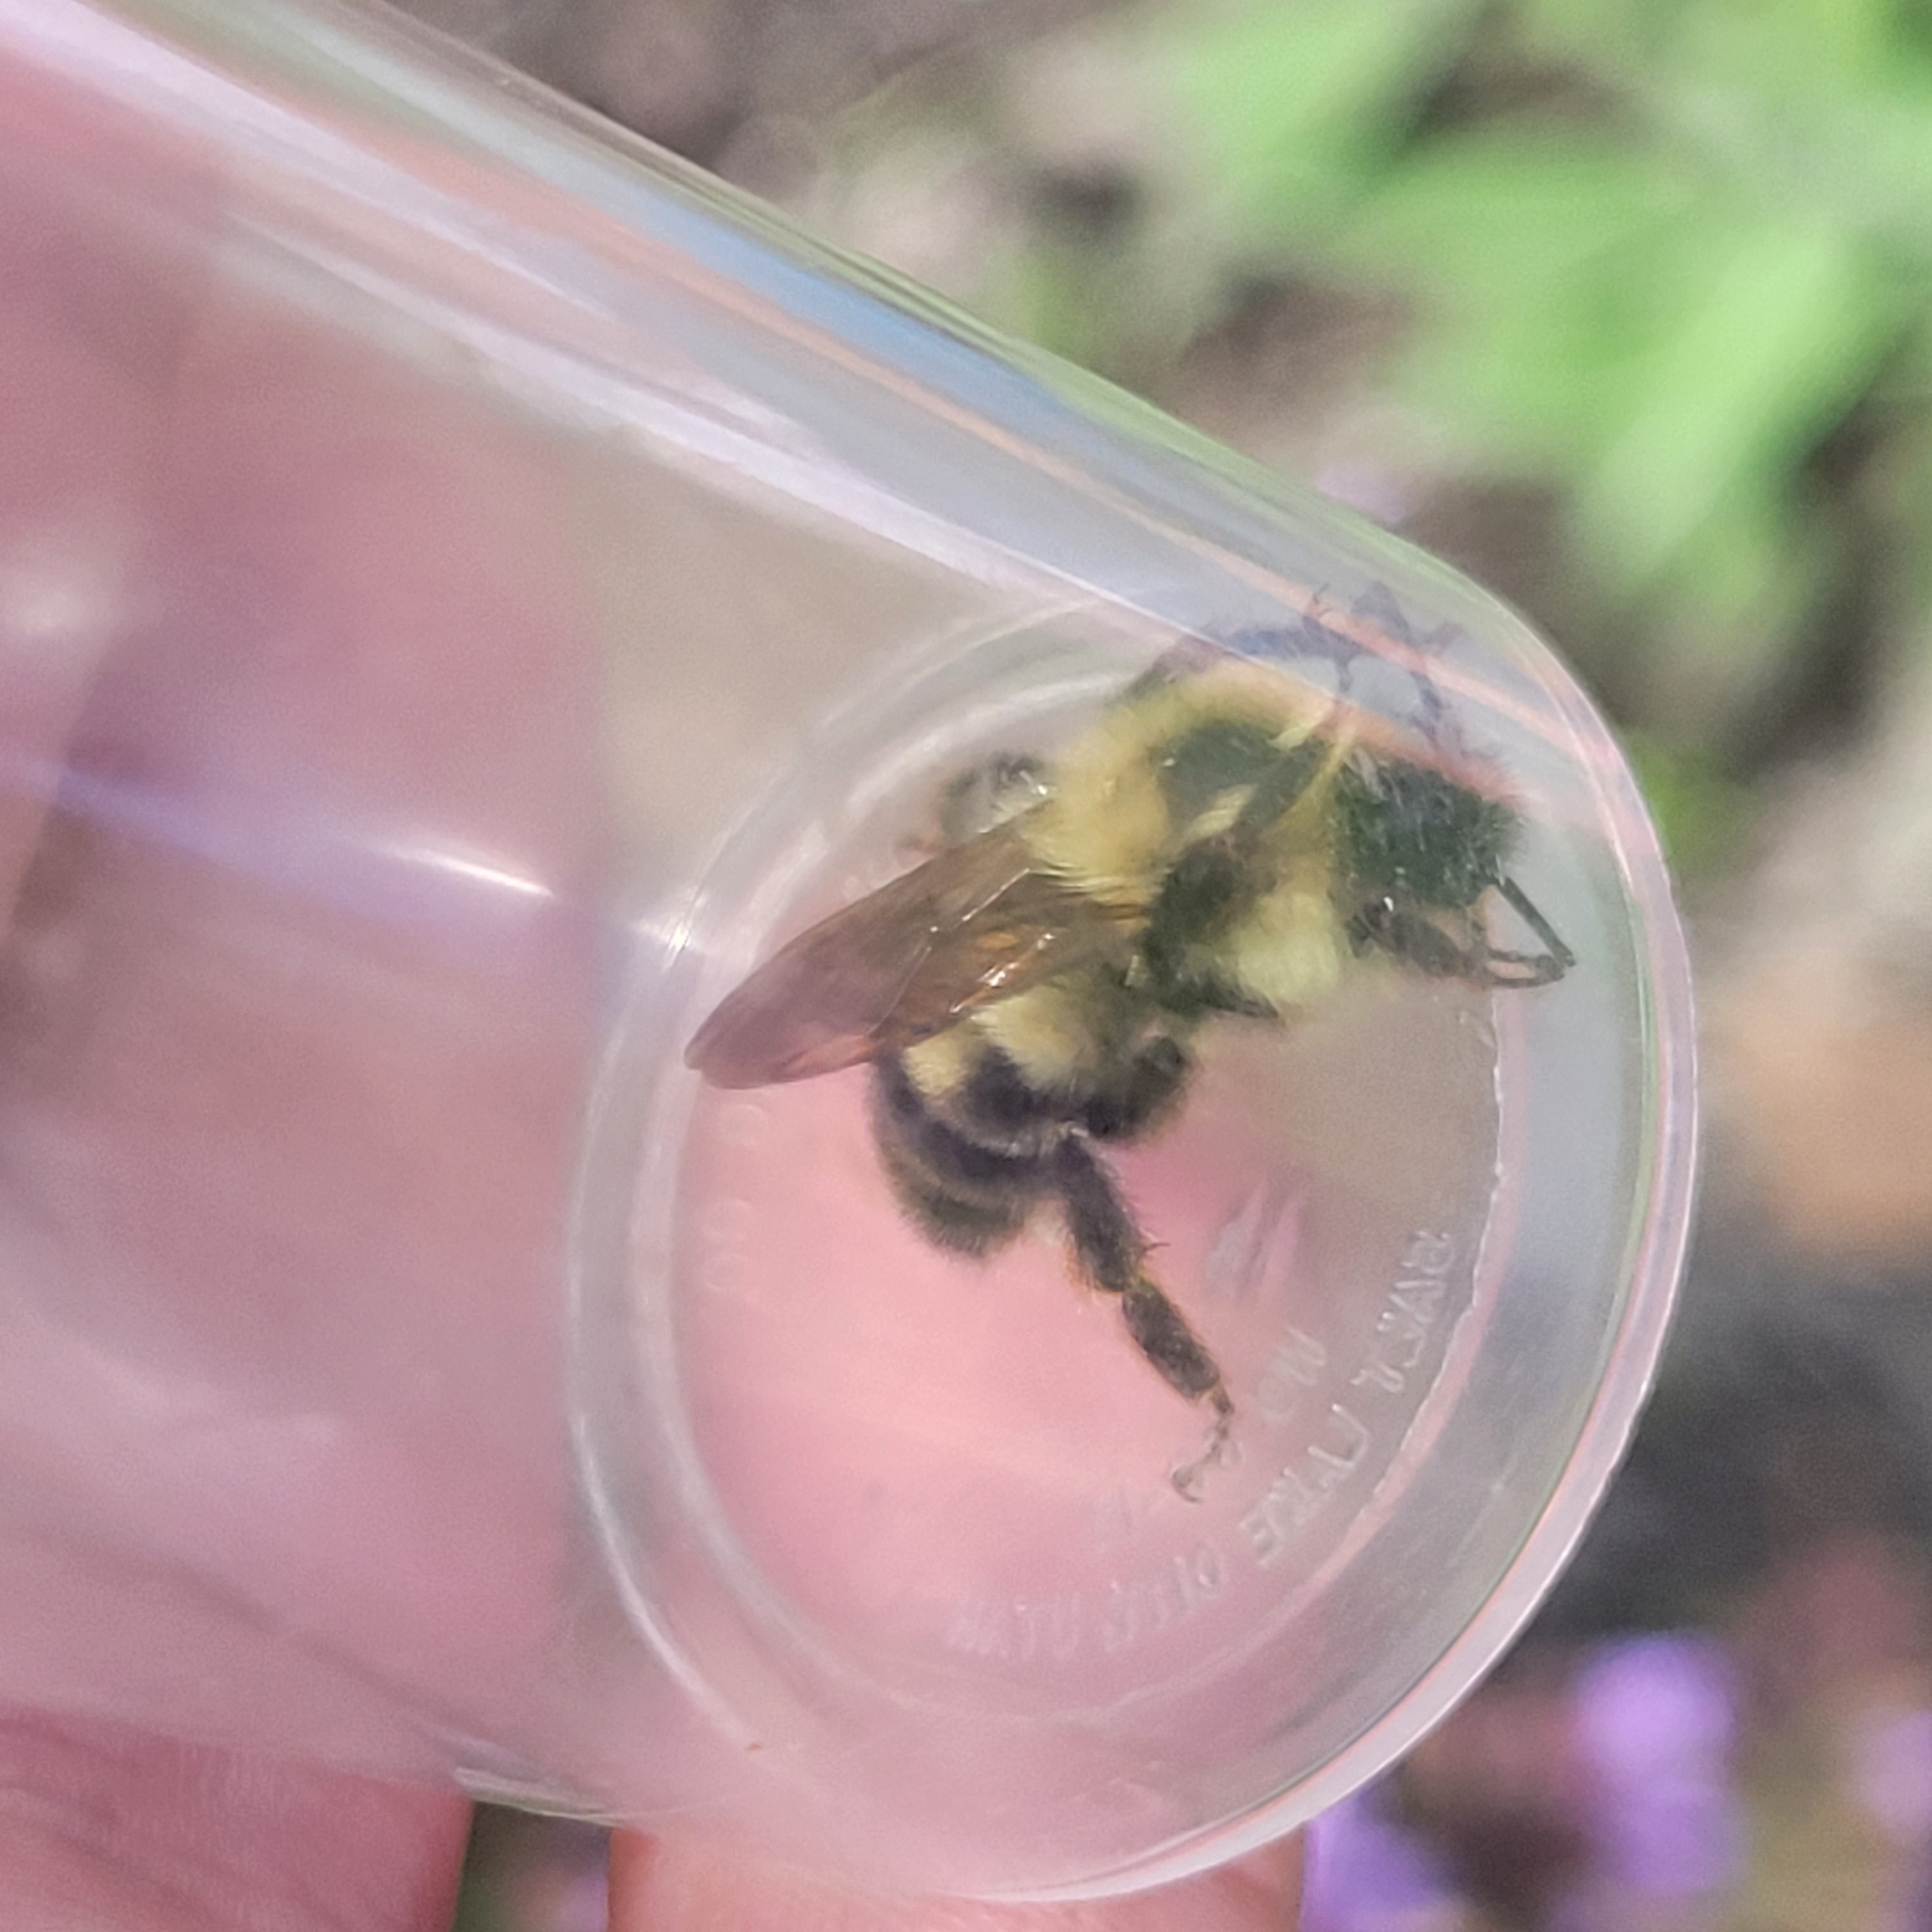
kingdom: Animalia
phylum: Arthropoda
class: Insecta
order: Hymenoptera
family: Apidae
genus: Bombus
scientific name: Bombus bimaculatus
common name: Two-spotted bumble bee
